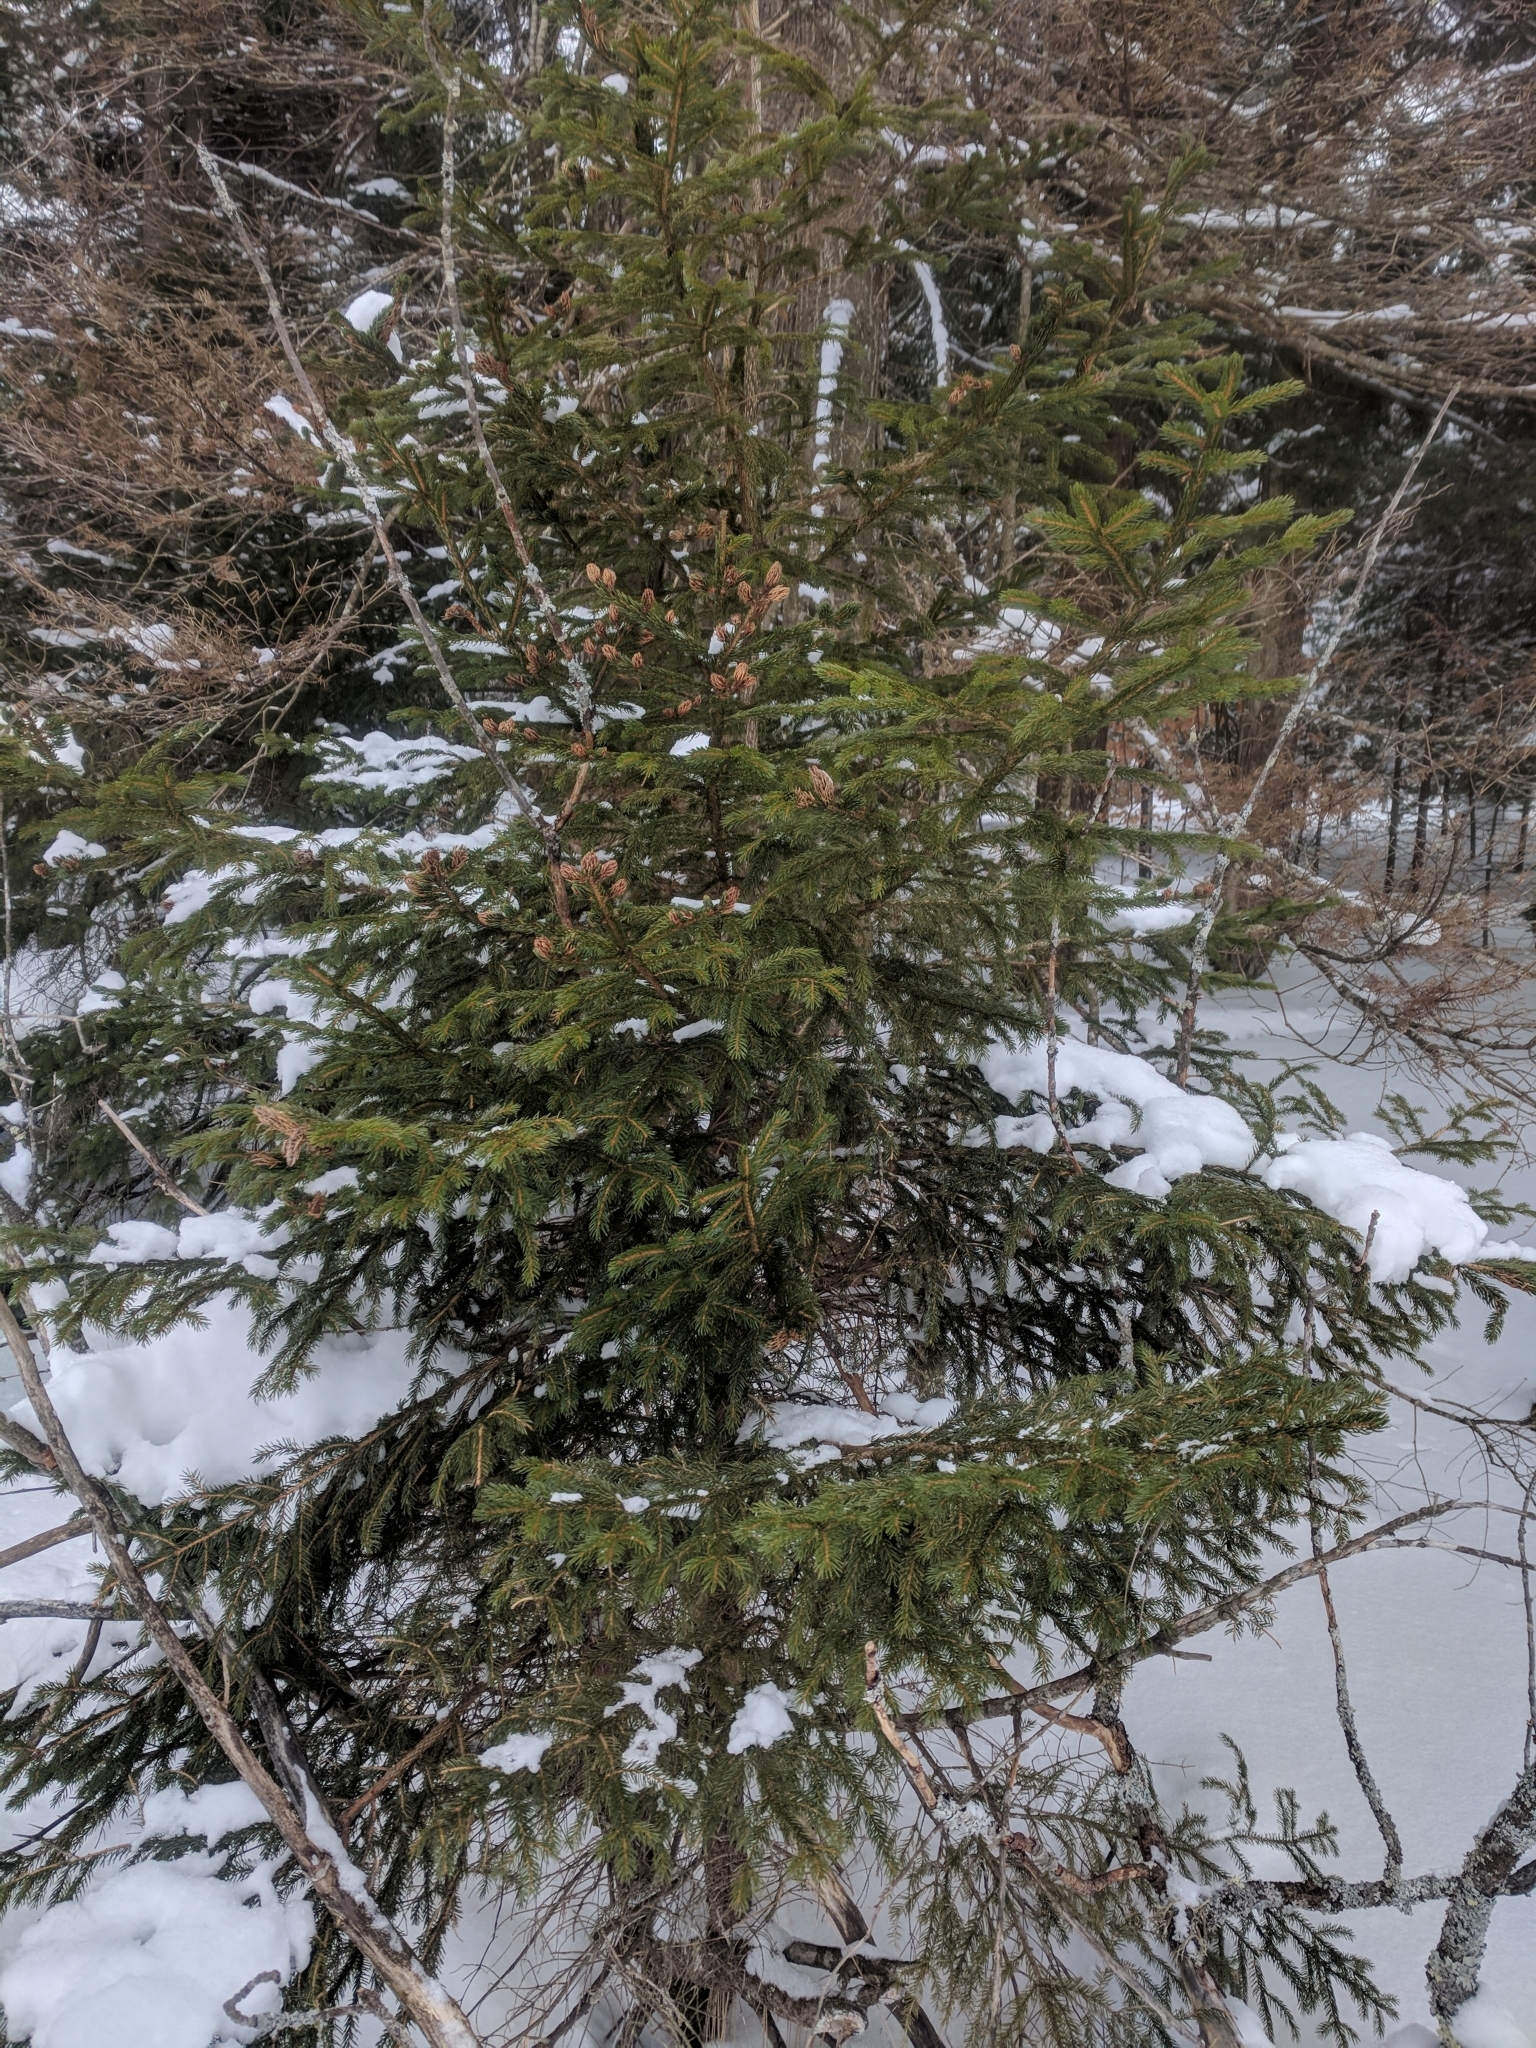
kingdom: Plantae
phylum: Tracheophyta
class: Pinopsida
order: Pinales
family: Pinaceae
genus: Picea
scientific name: Picea rubens
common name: Red spruce
